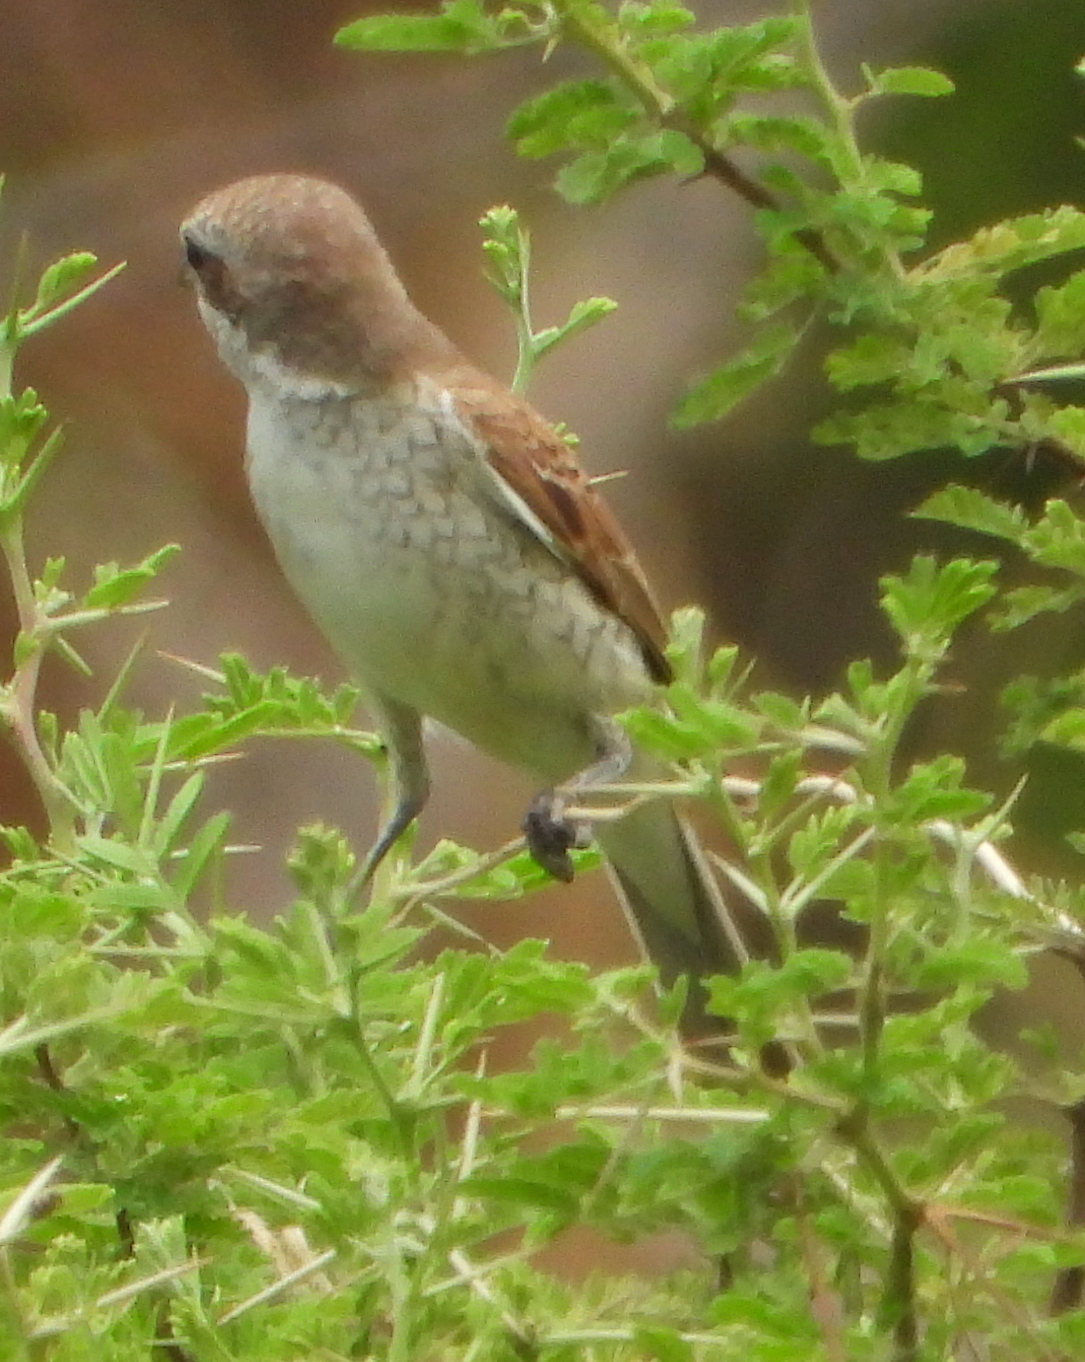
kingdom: Animalia
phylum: Chordata
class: Aves
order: Passeriformes
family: Laniidae
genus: Lanius
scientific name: Lanius collurio
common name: Red-backed shrike
